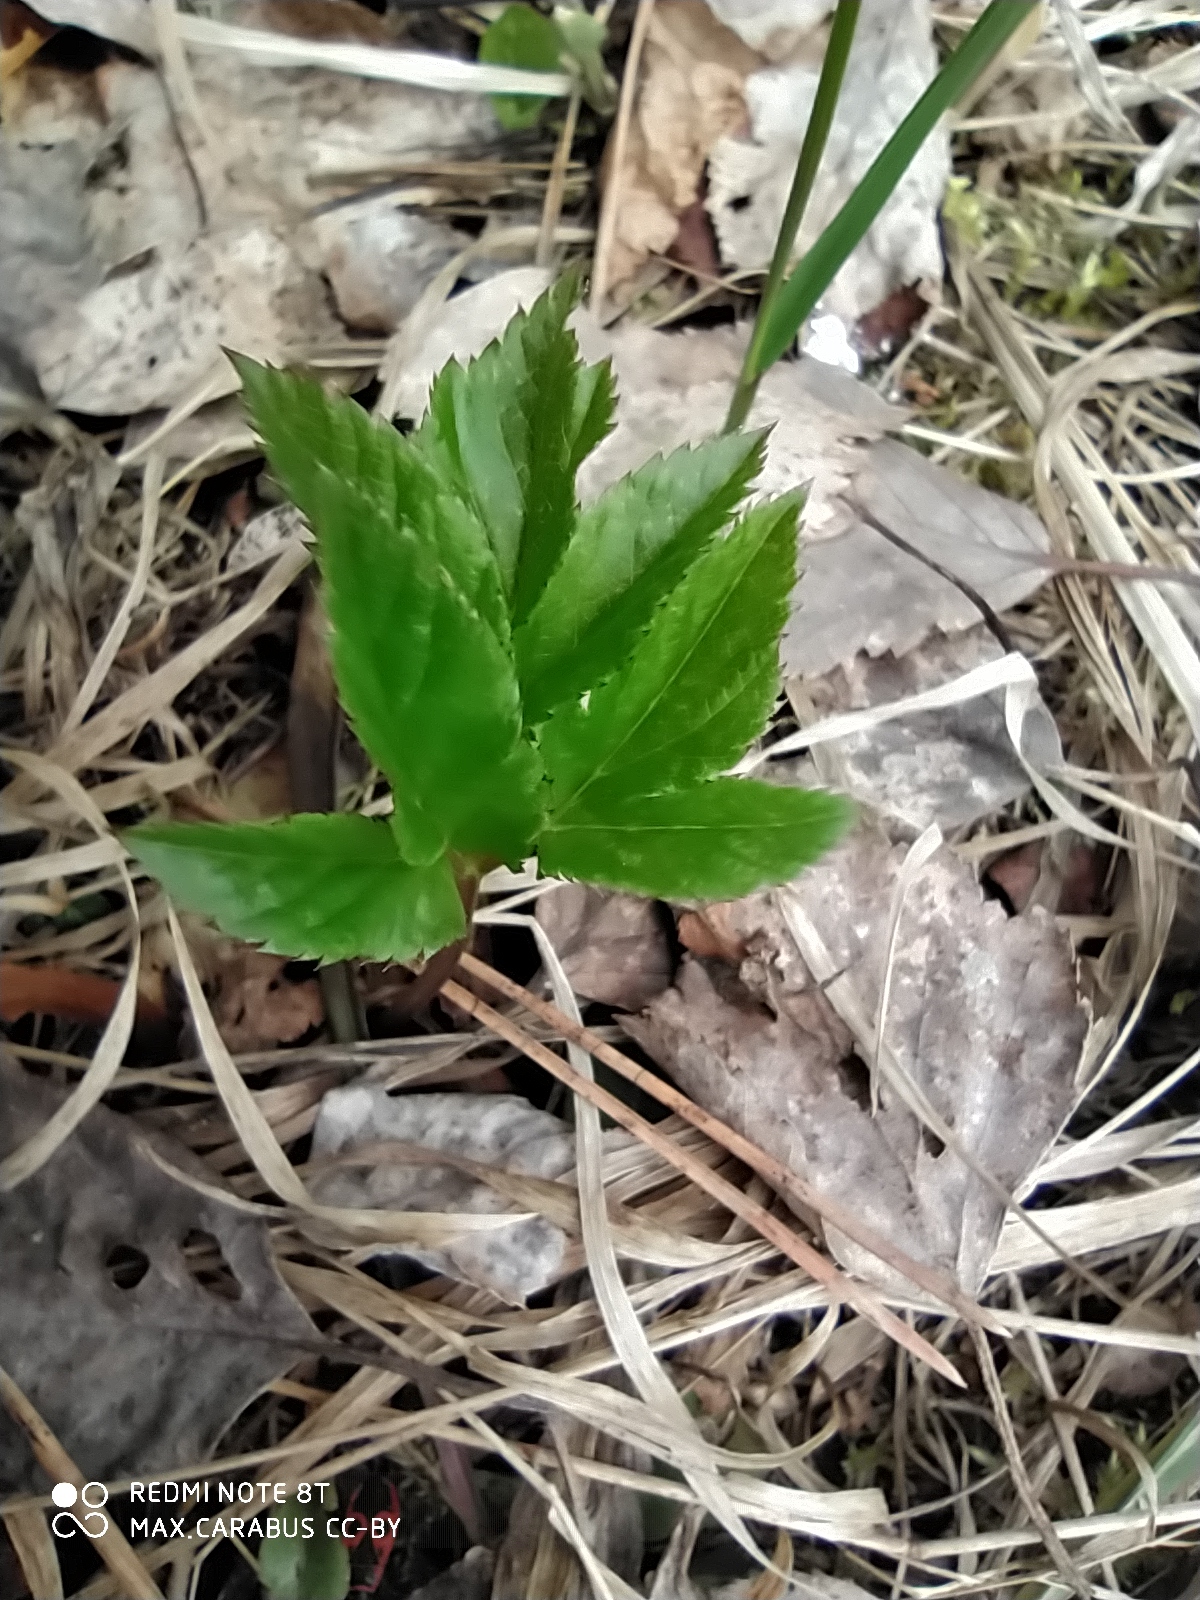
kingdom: Plantae
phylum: Tracheophyta
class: Magnoliopsida
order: Apiales
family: Apiaceae
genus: Aegopodium
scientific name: Aegopodium podagraria
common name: Ground-elder
